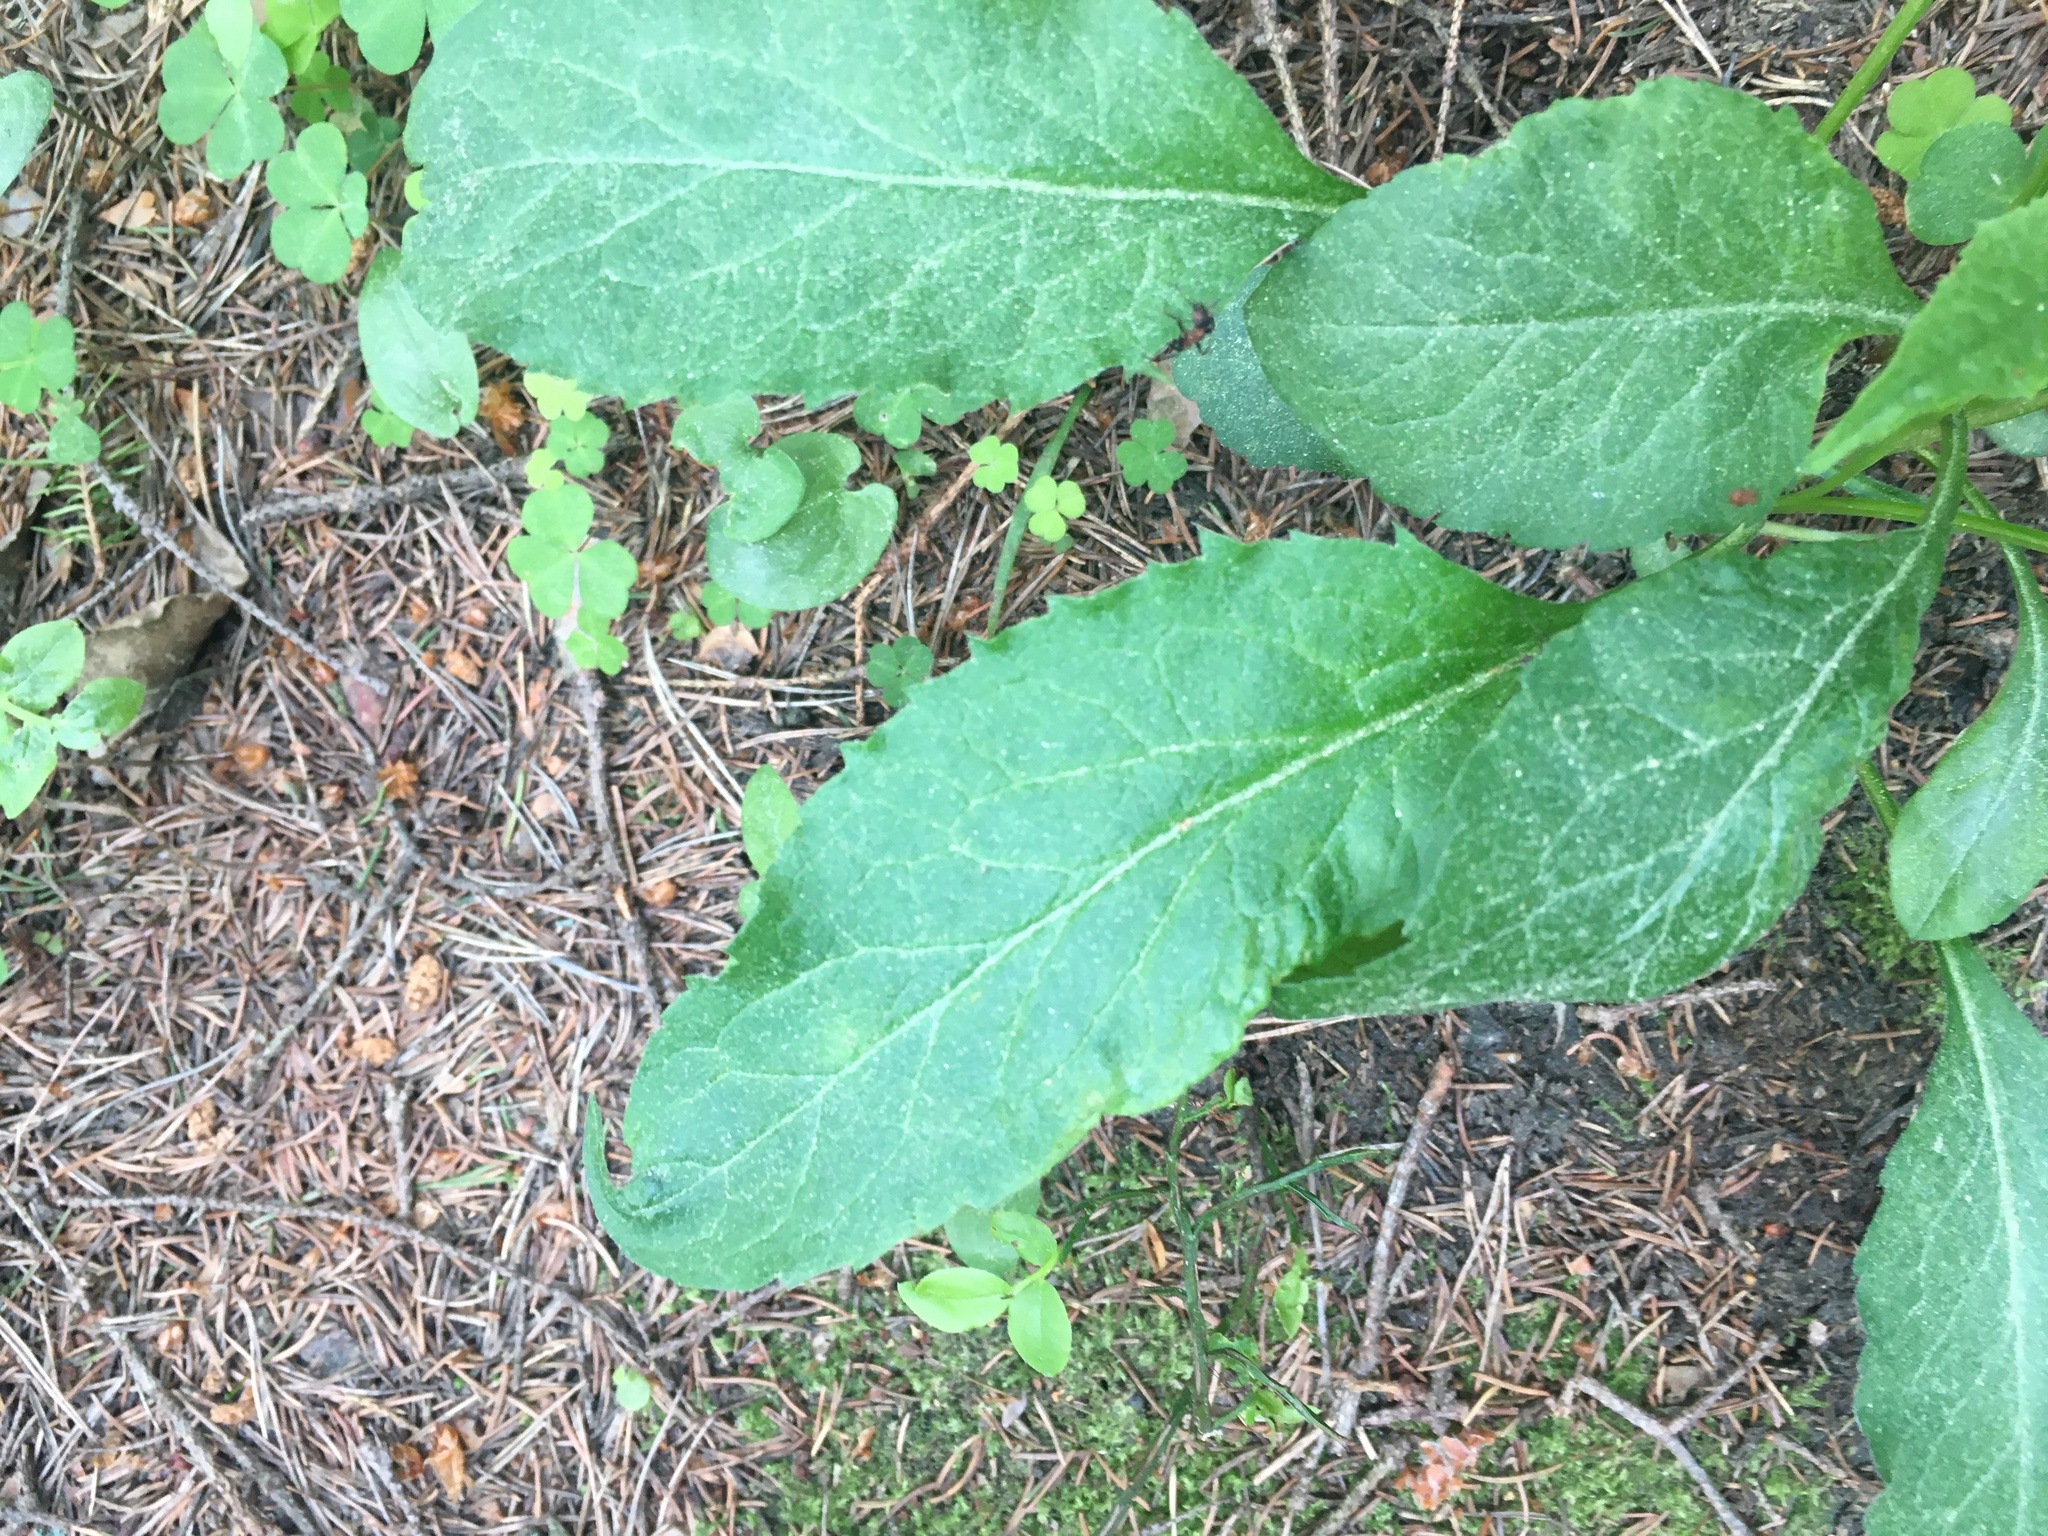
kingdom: Plantae
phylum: Tracheophyta
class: Magnoliopsida
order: Asterales
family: Asteraceae
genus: Solidago
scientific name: Solidago virgaurea
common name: Goldenrod
